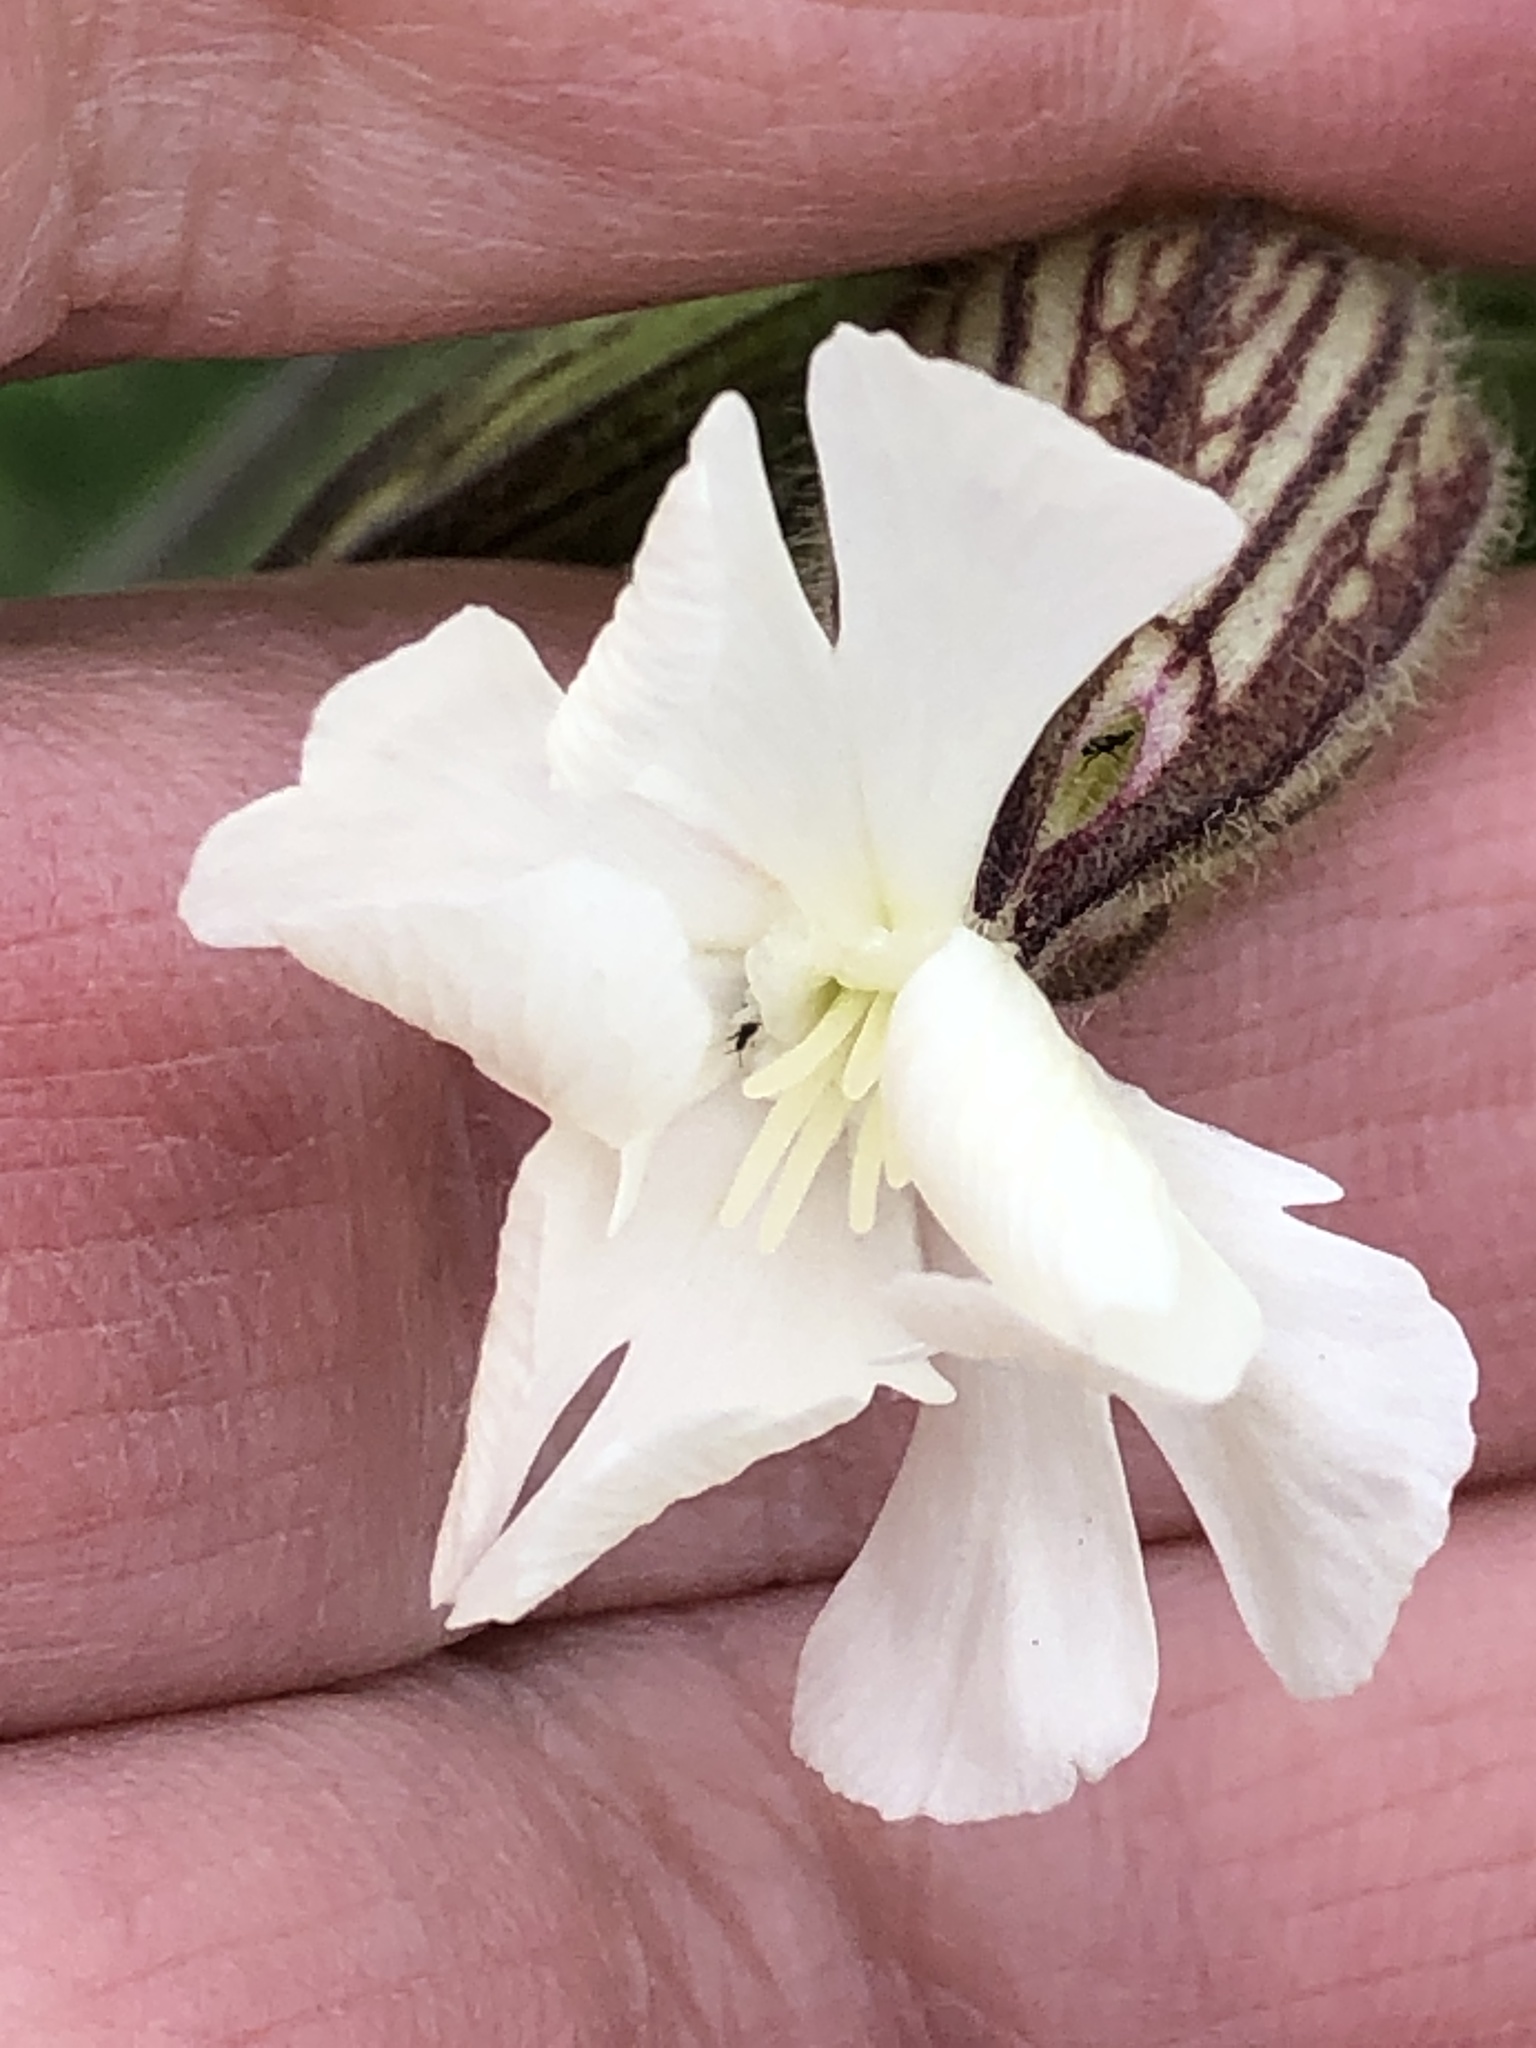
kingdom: Plantae
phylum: Tracheophyta
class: Magnoliopsida
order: Caryophyllales
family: Caryophyllaceae
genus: Silene
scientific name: Silene latifolia
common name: White campion
